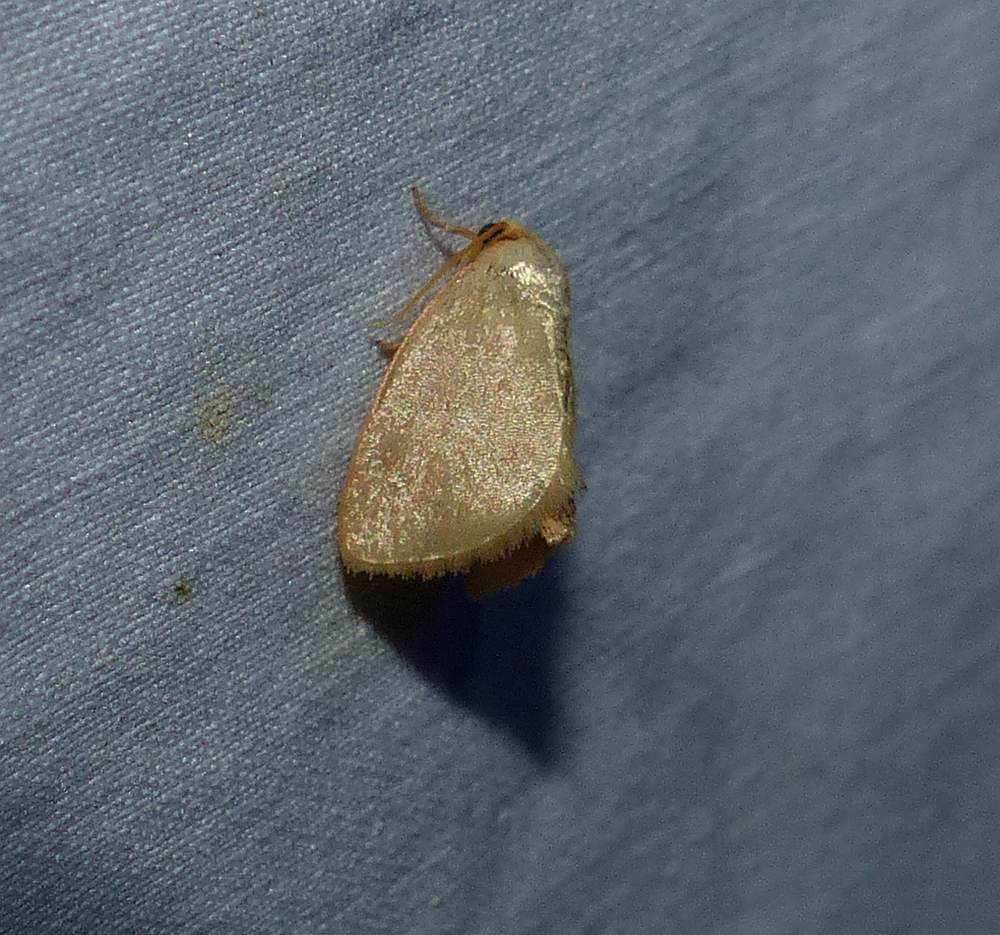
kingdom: Animalia
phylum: Arthropoda
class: Insecta
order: Lepidoptera
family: Limacodidae
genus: Tortricidia
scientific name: Tortricidia pallida
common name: Red-crossed button slug moth
